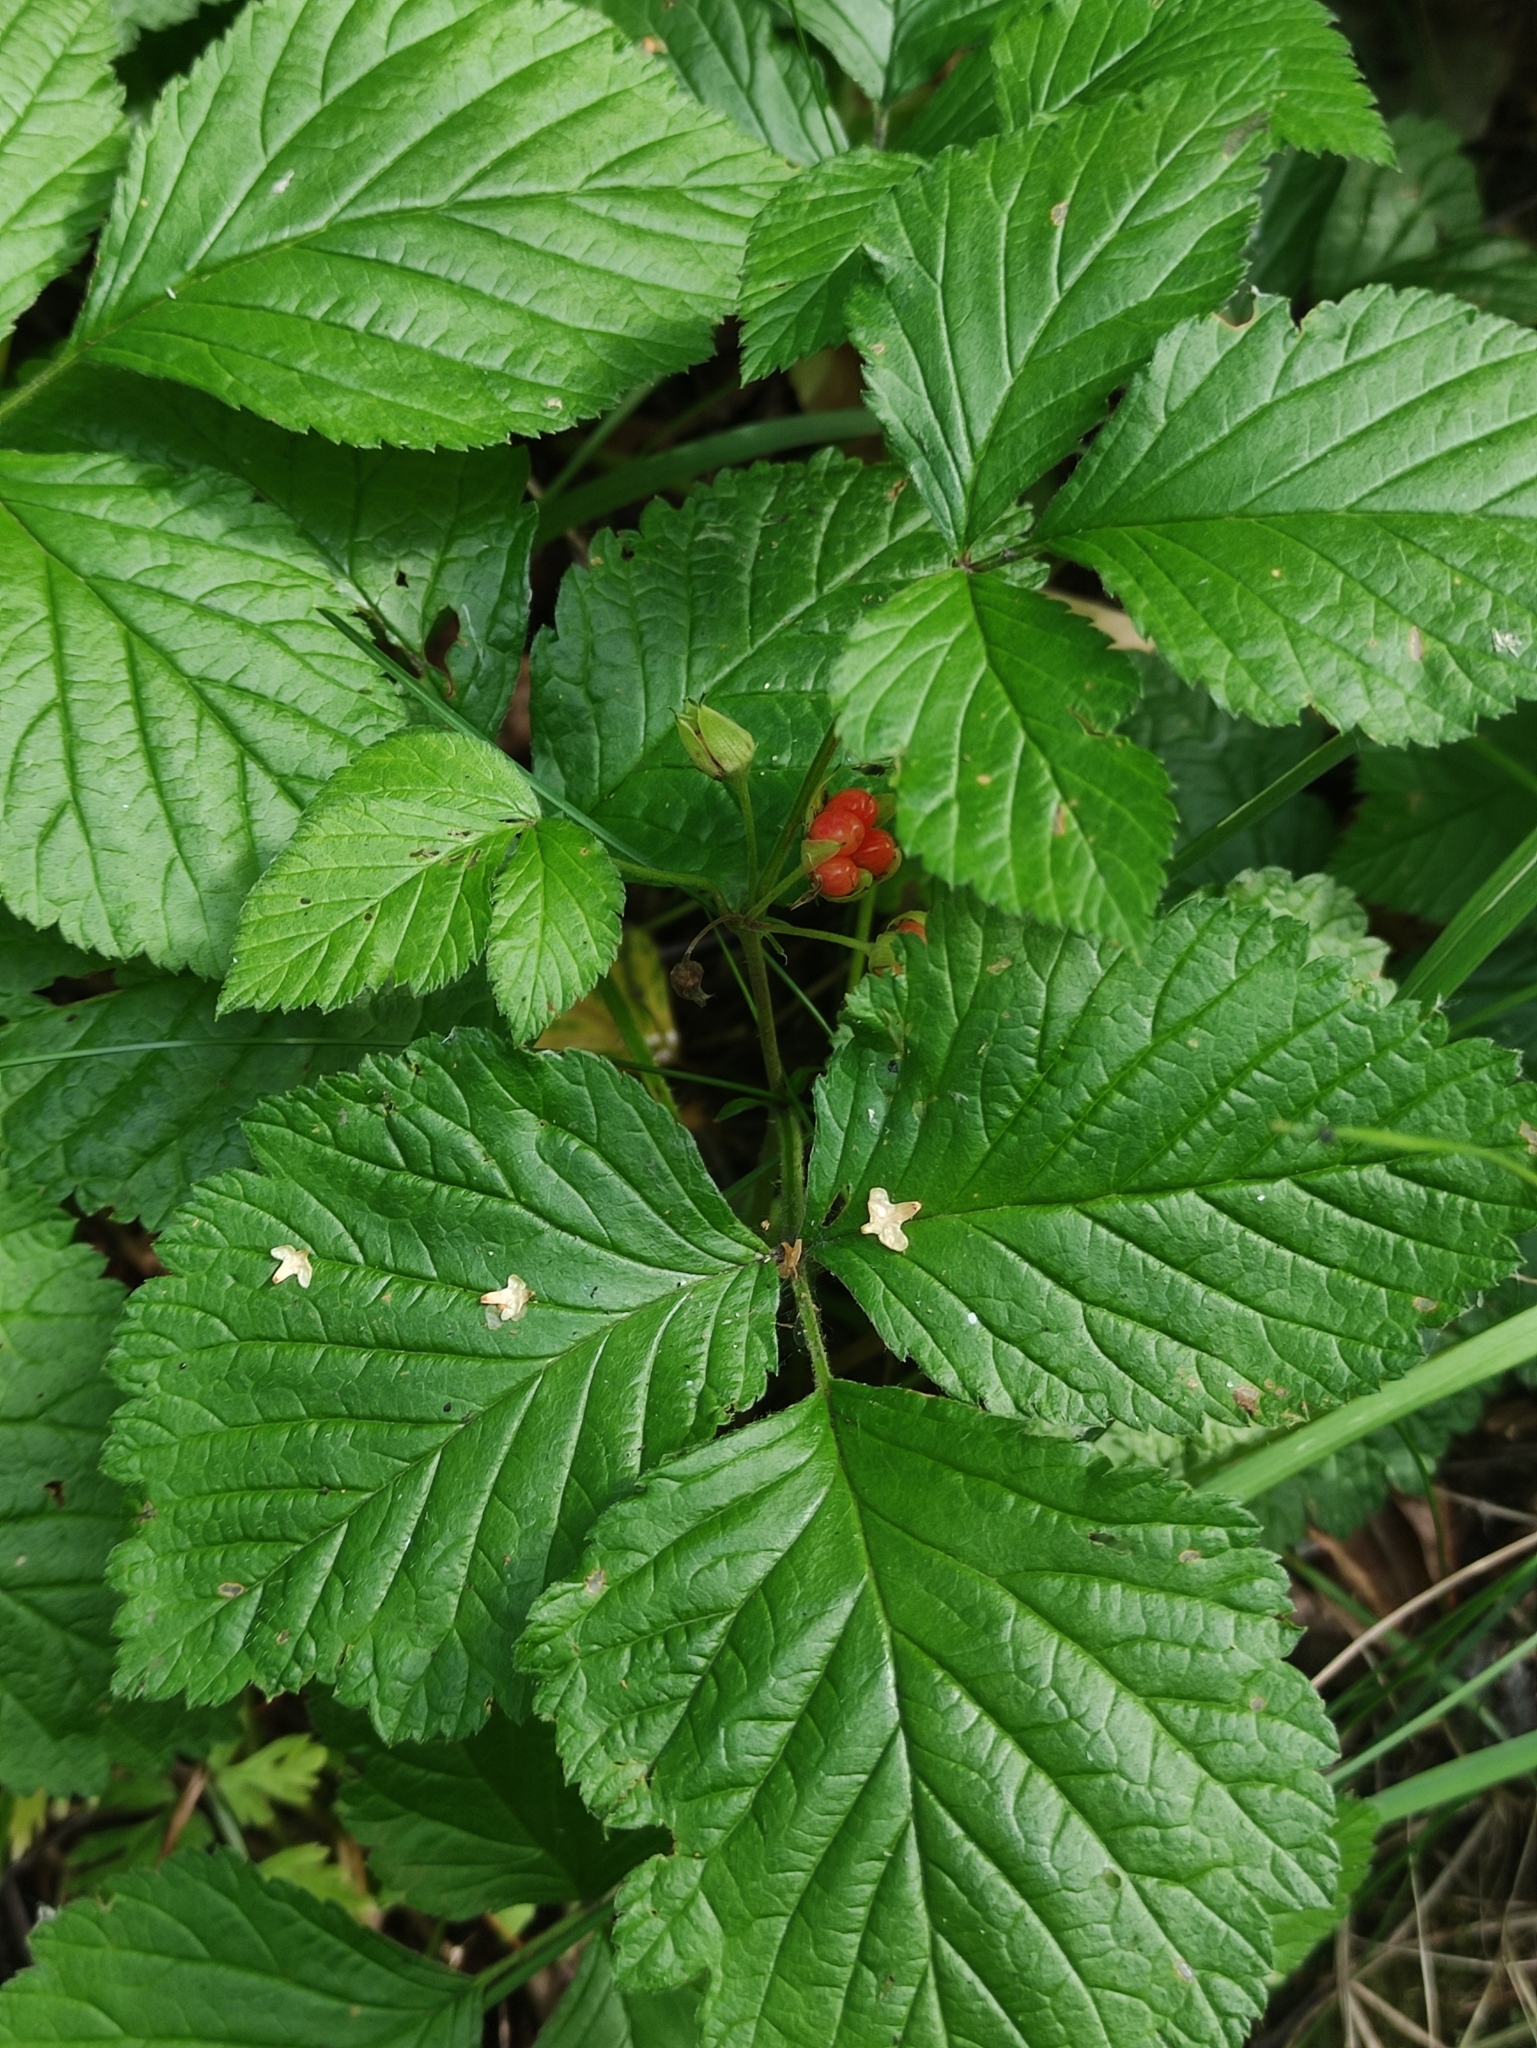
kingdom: Plantae
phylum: Tracheophyta
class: Magnoliopsida
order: Rosales
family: Rosaceae
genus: Rubus
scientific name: Rubus saxatilis
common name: Stone bramble
